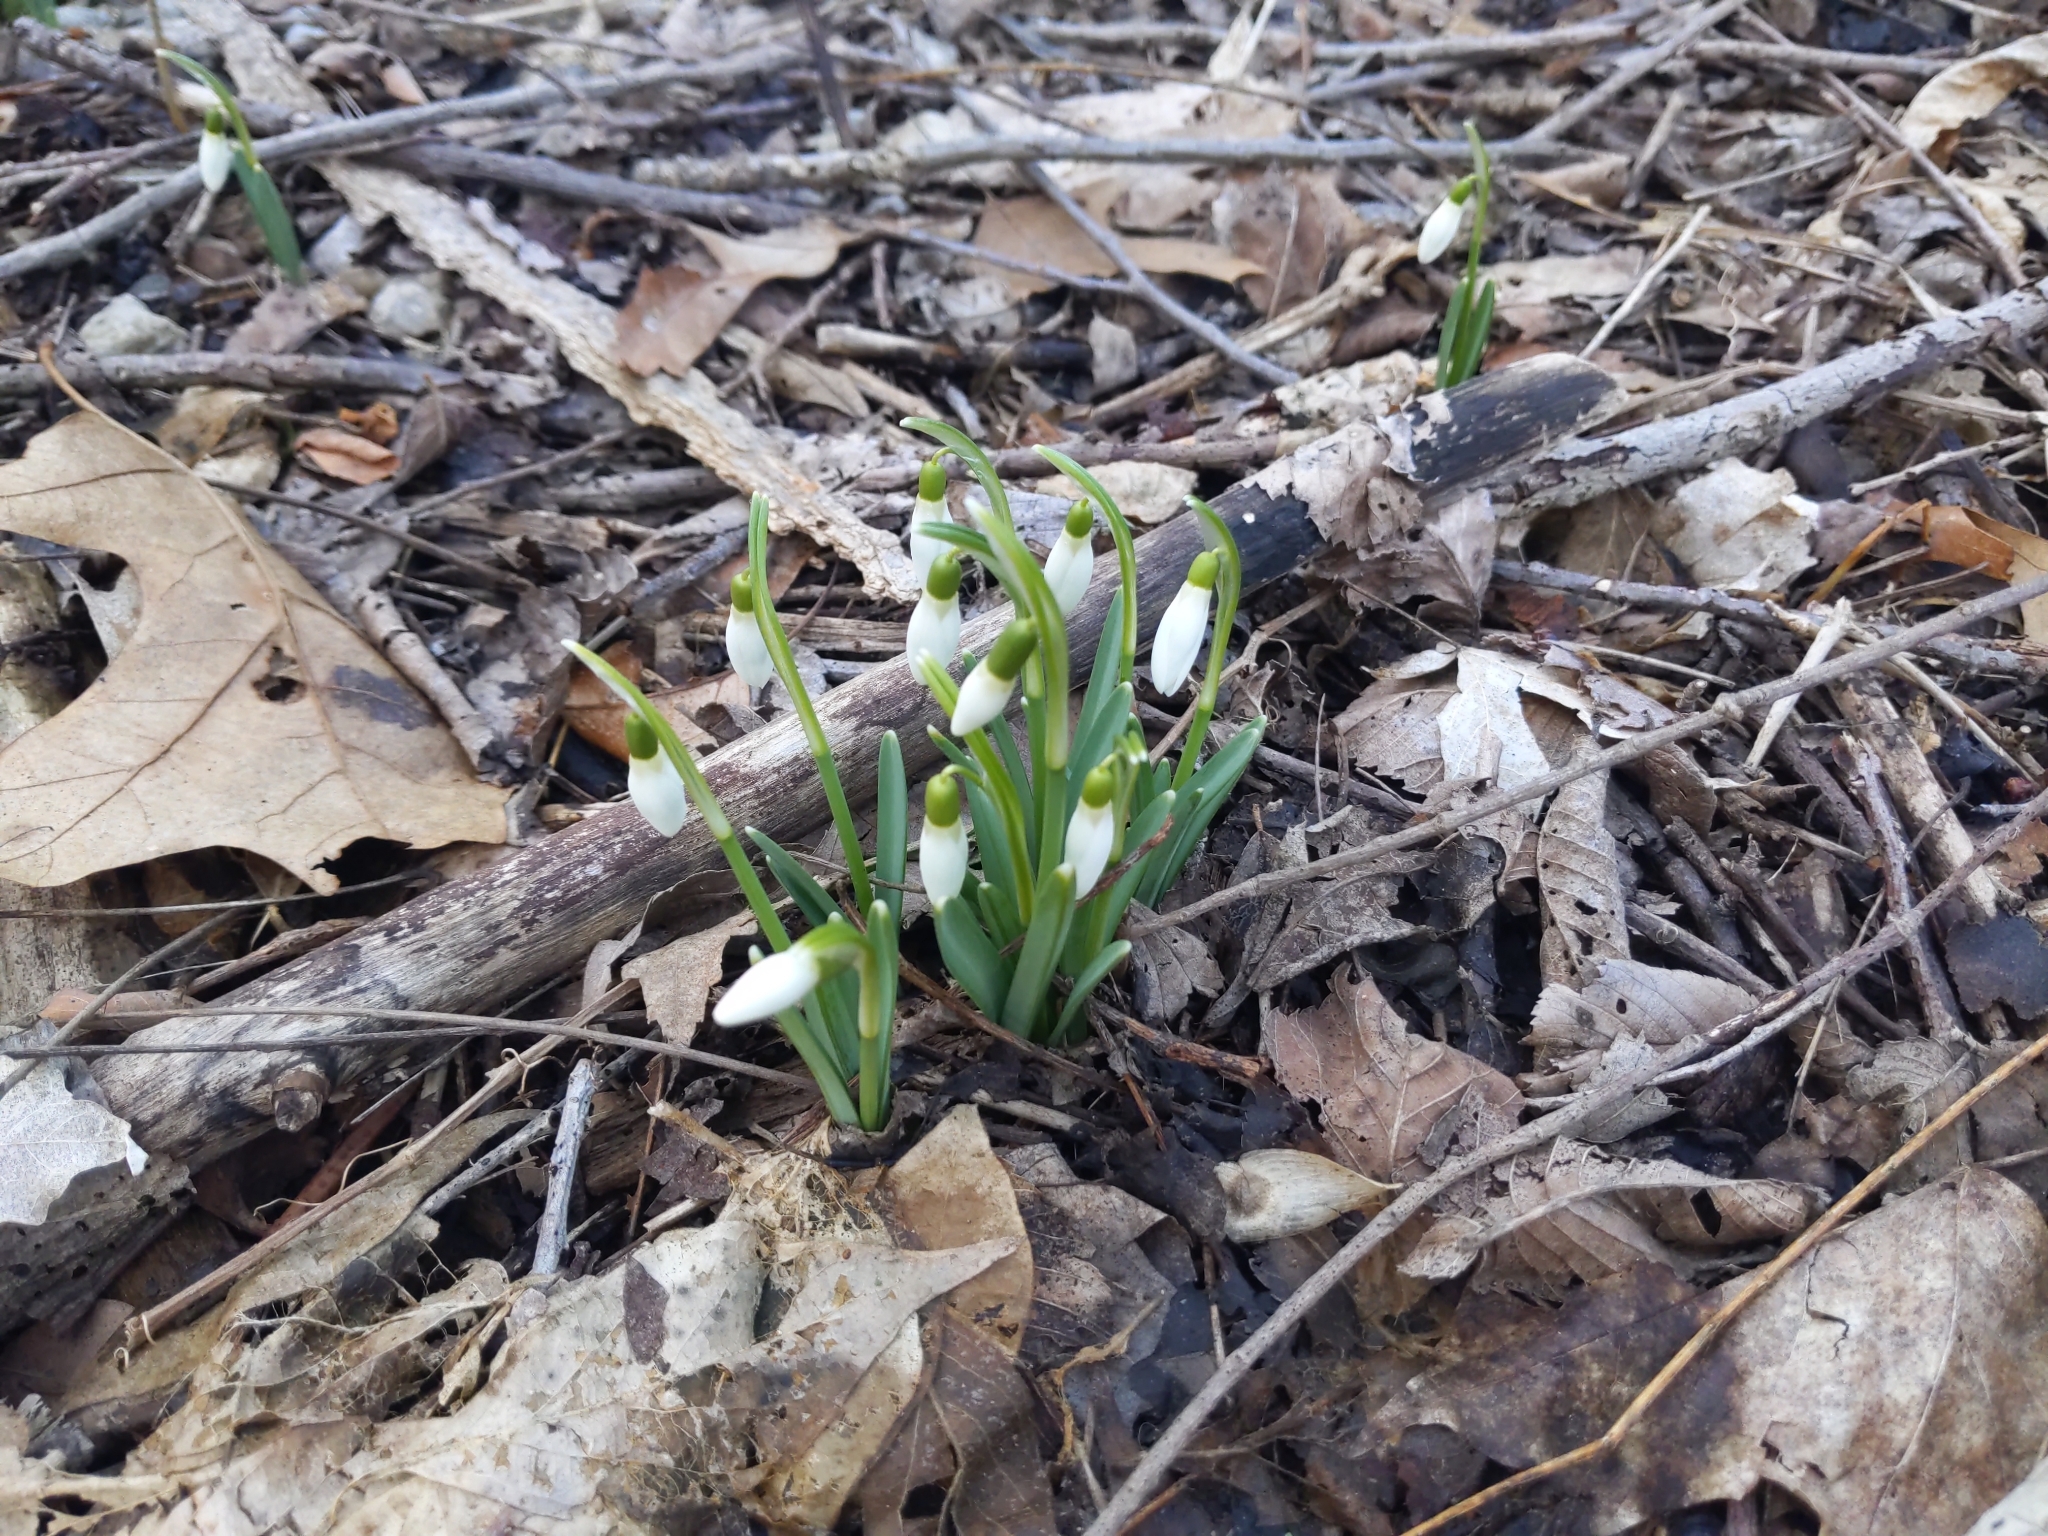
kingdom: Plantae
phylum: Tracheophyta
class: Liliopsida
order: Asparagales
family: Amaryllidaceae
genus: Galanthus
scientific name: Galanthus nivalis
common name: Snowdrop
